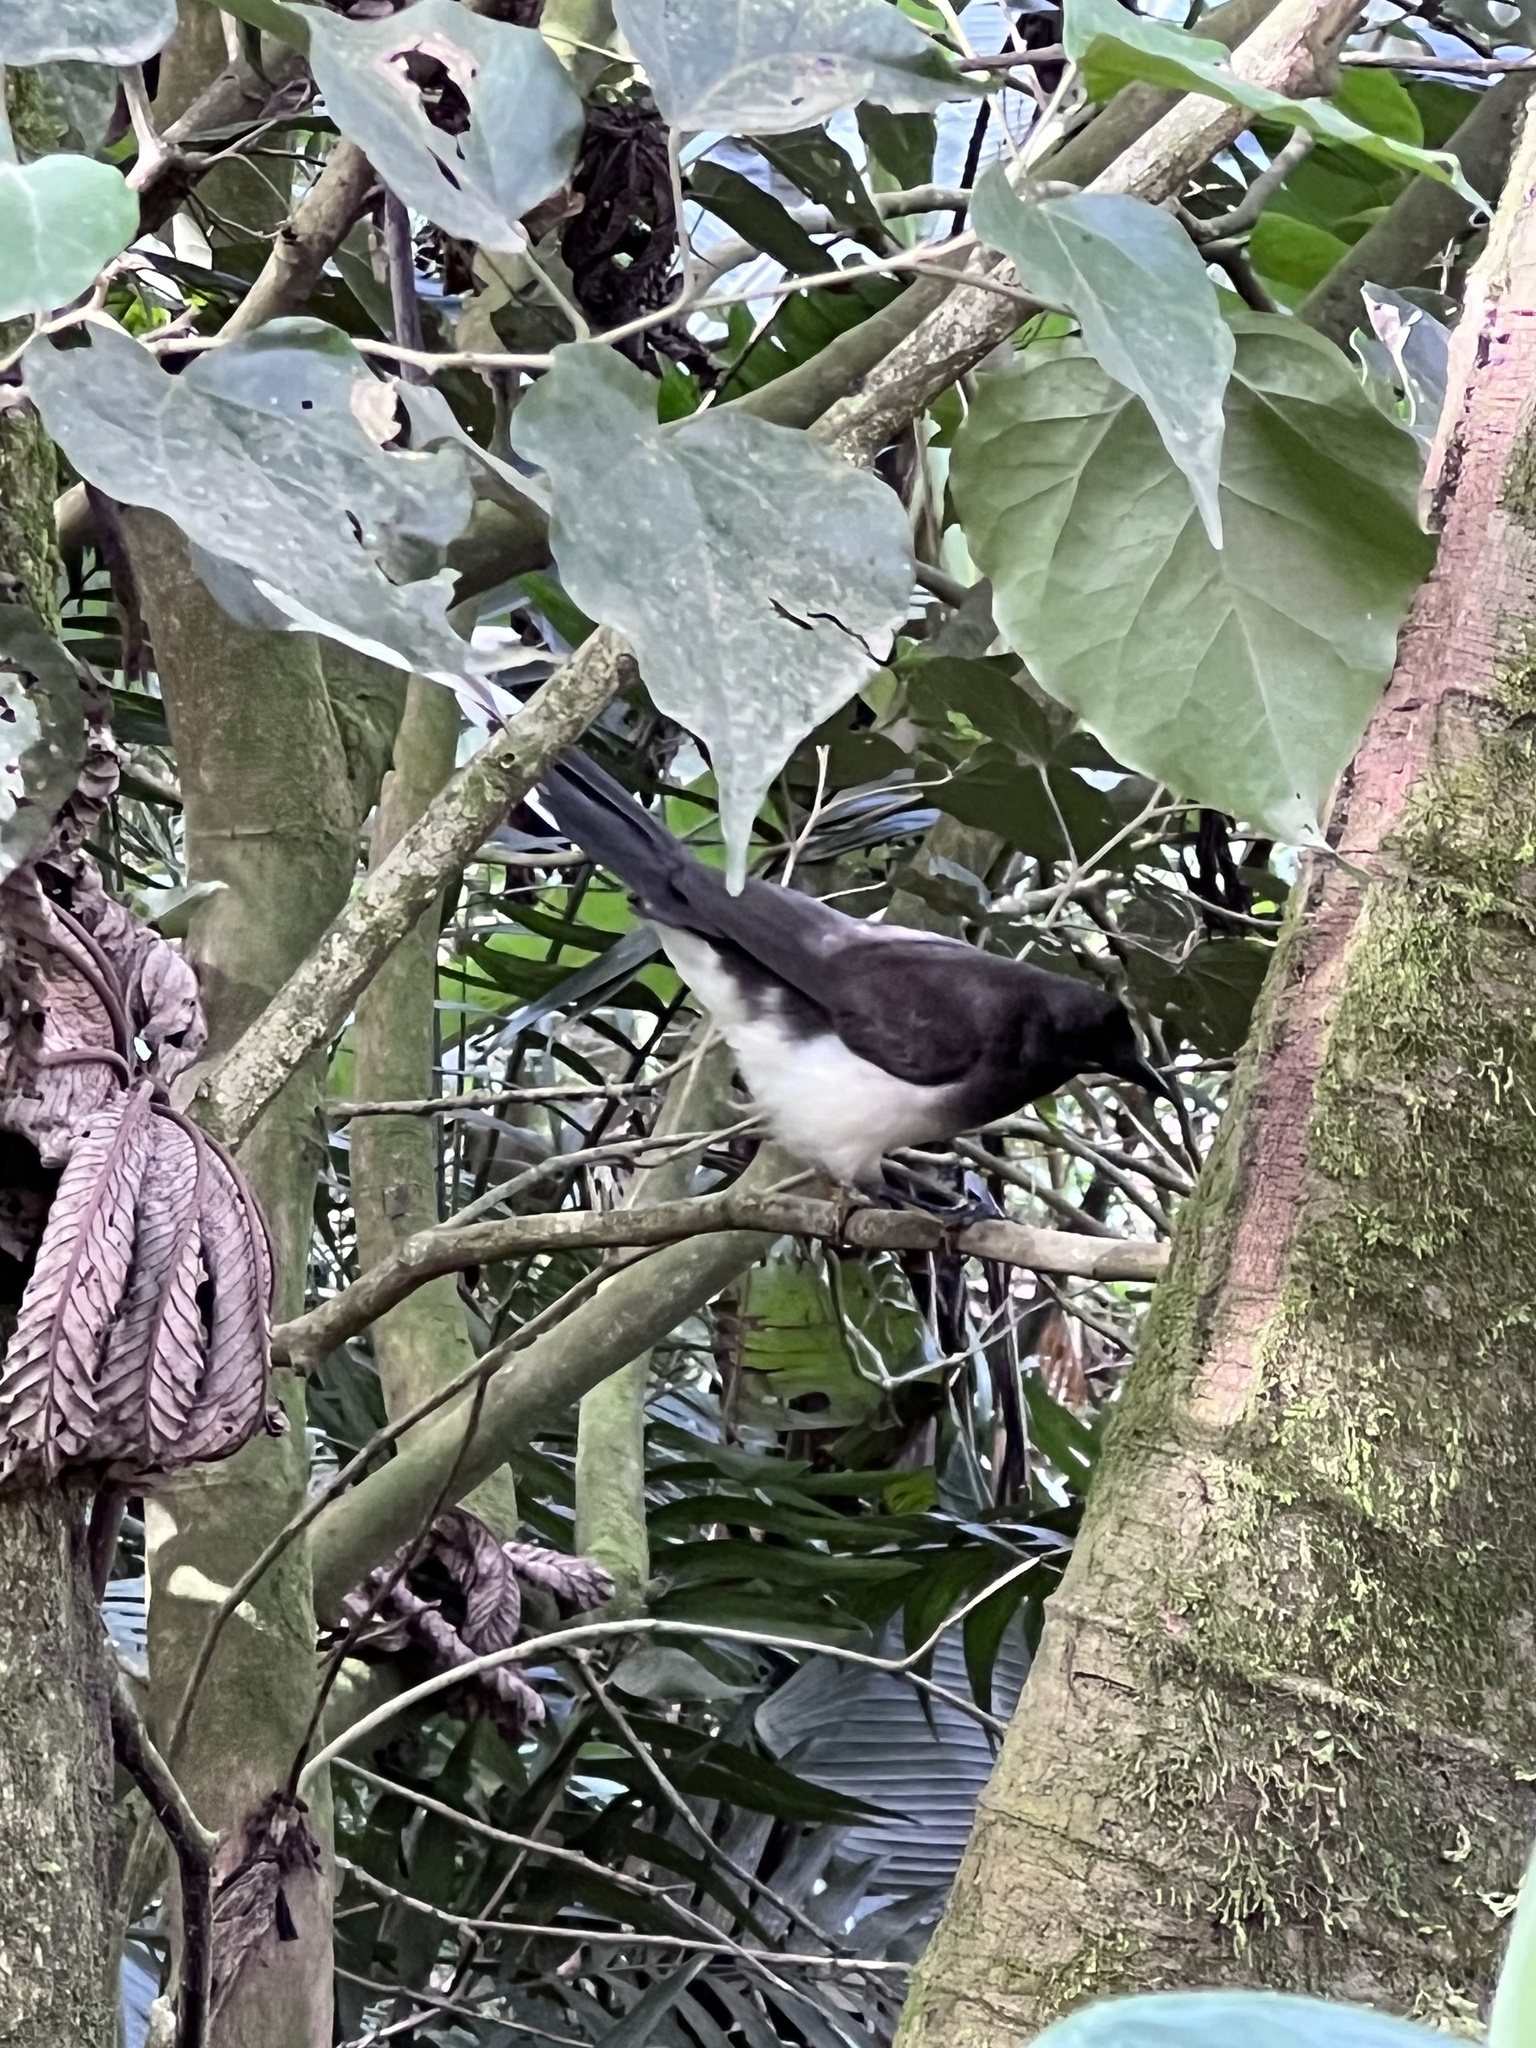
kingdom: Animalia
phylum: Chordata
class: Aves
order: Passeriformes
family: Corvidae
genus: Psilorhinus
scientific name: Psilorhinus morio
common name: Brown jay
